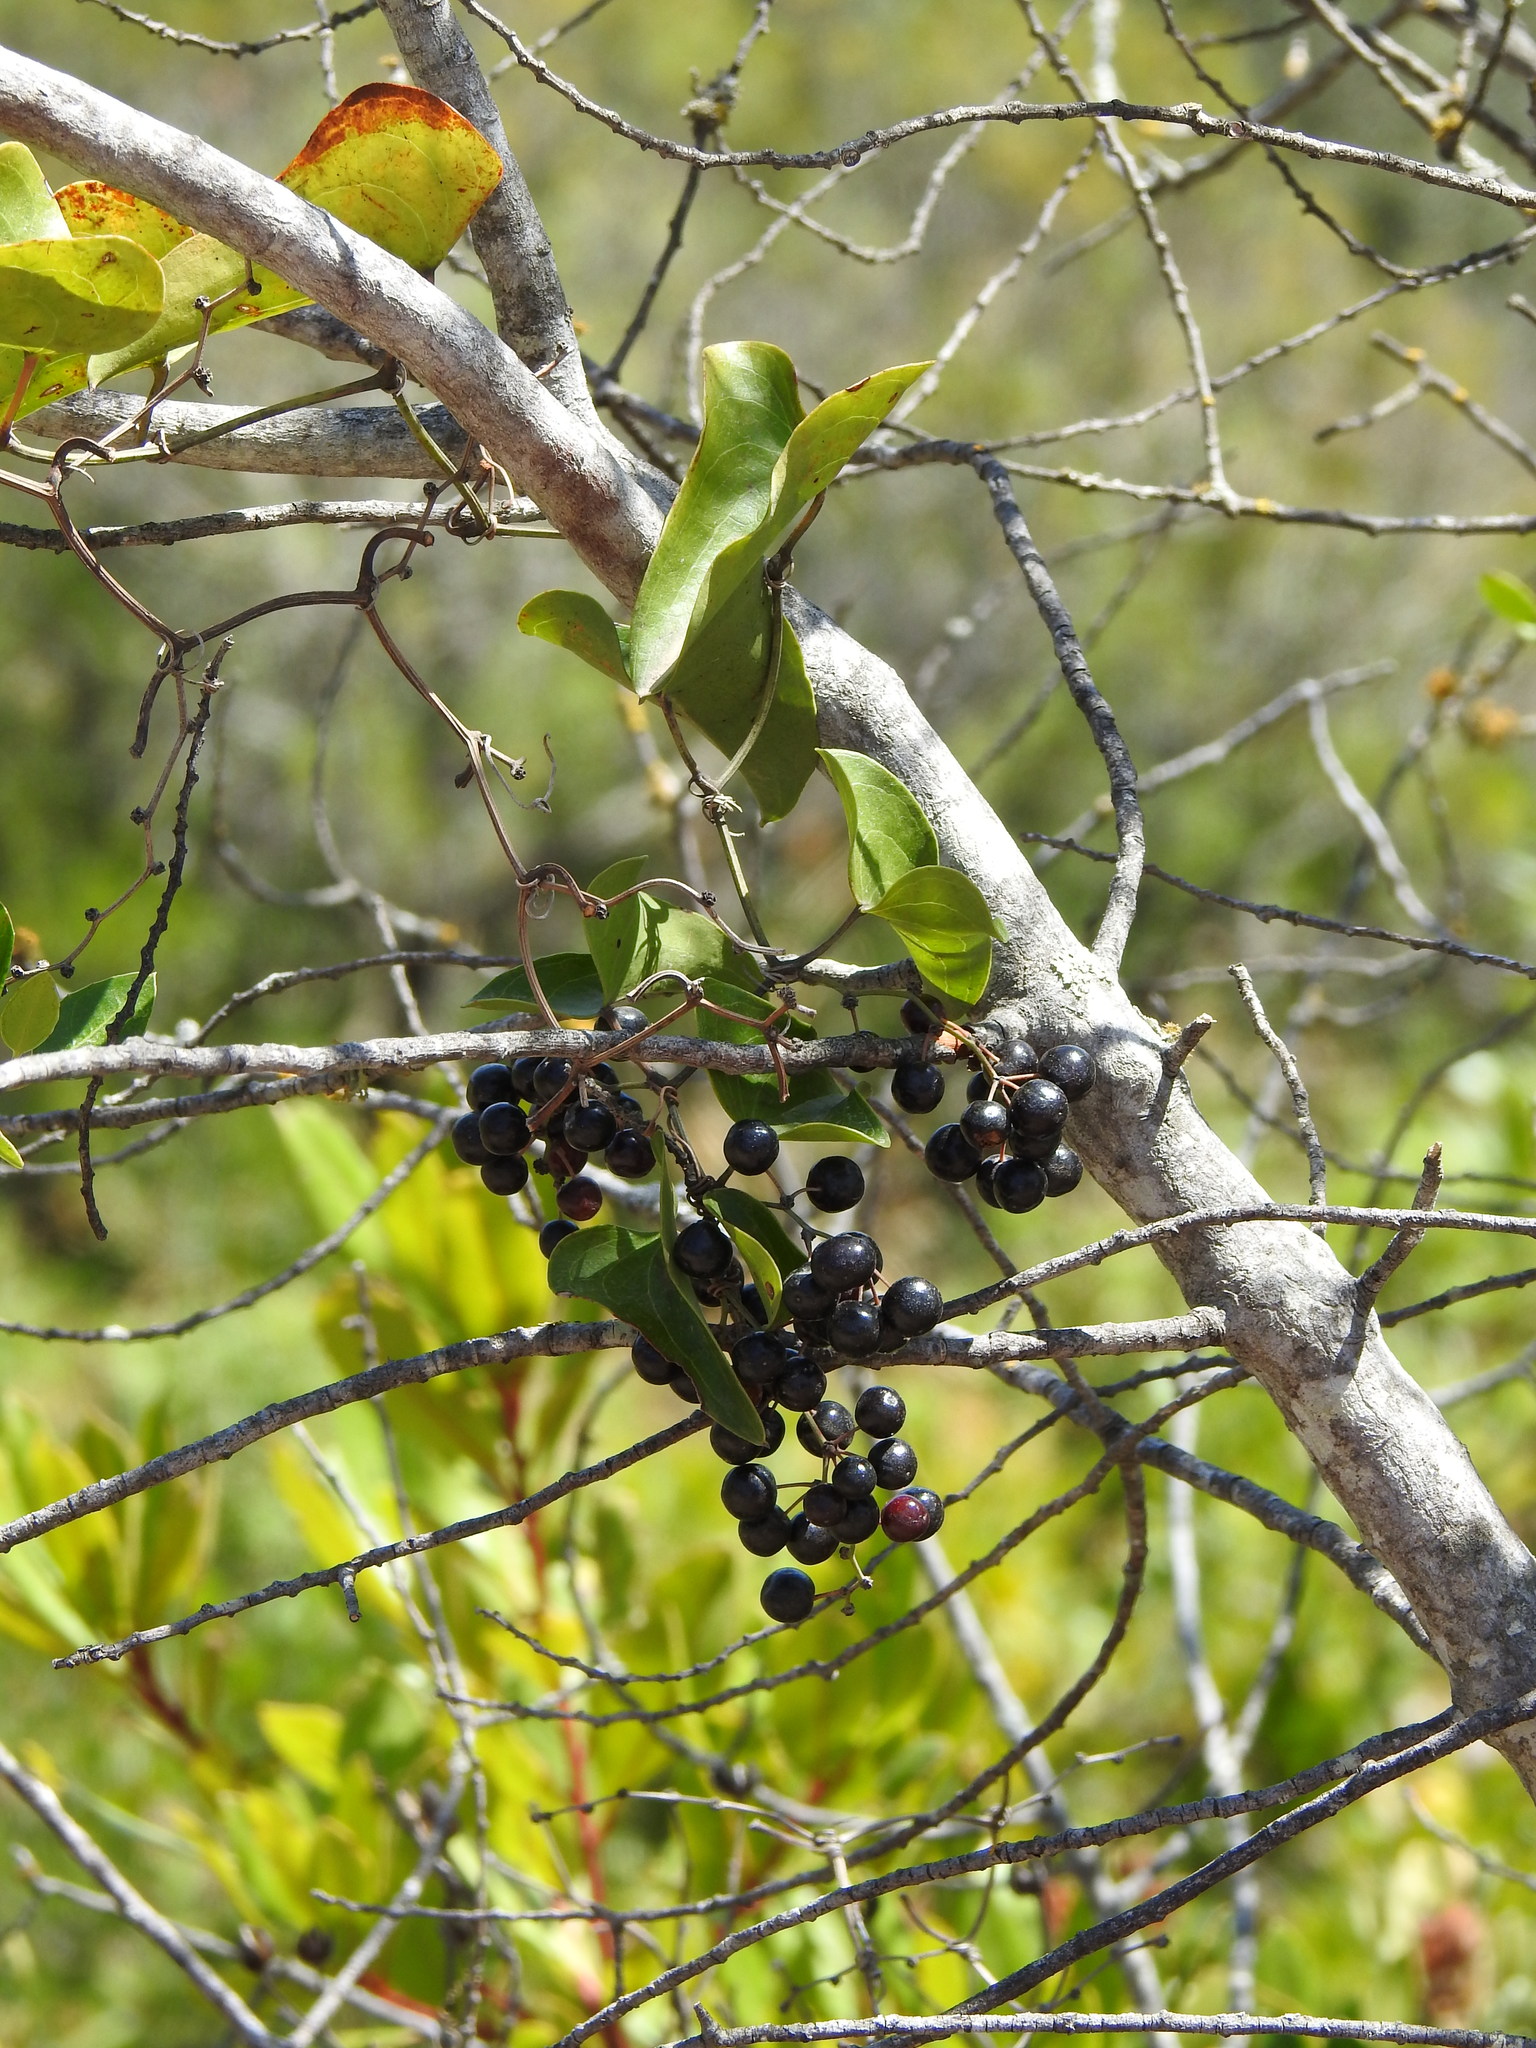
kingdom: Plantae
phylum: Tracheophyta
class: Liliopsida
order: Liliales
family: Smilacaceae
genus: Smilax
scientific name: Smilax aspera
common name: Common smilax
